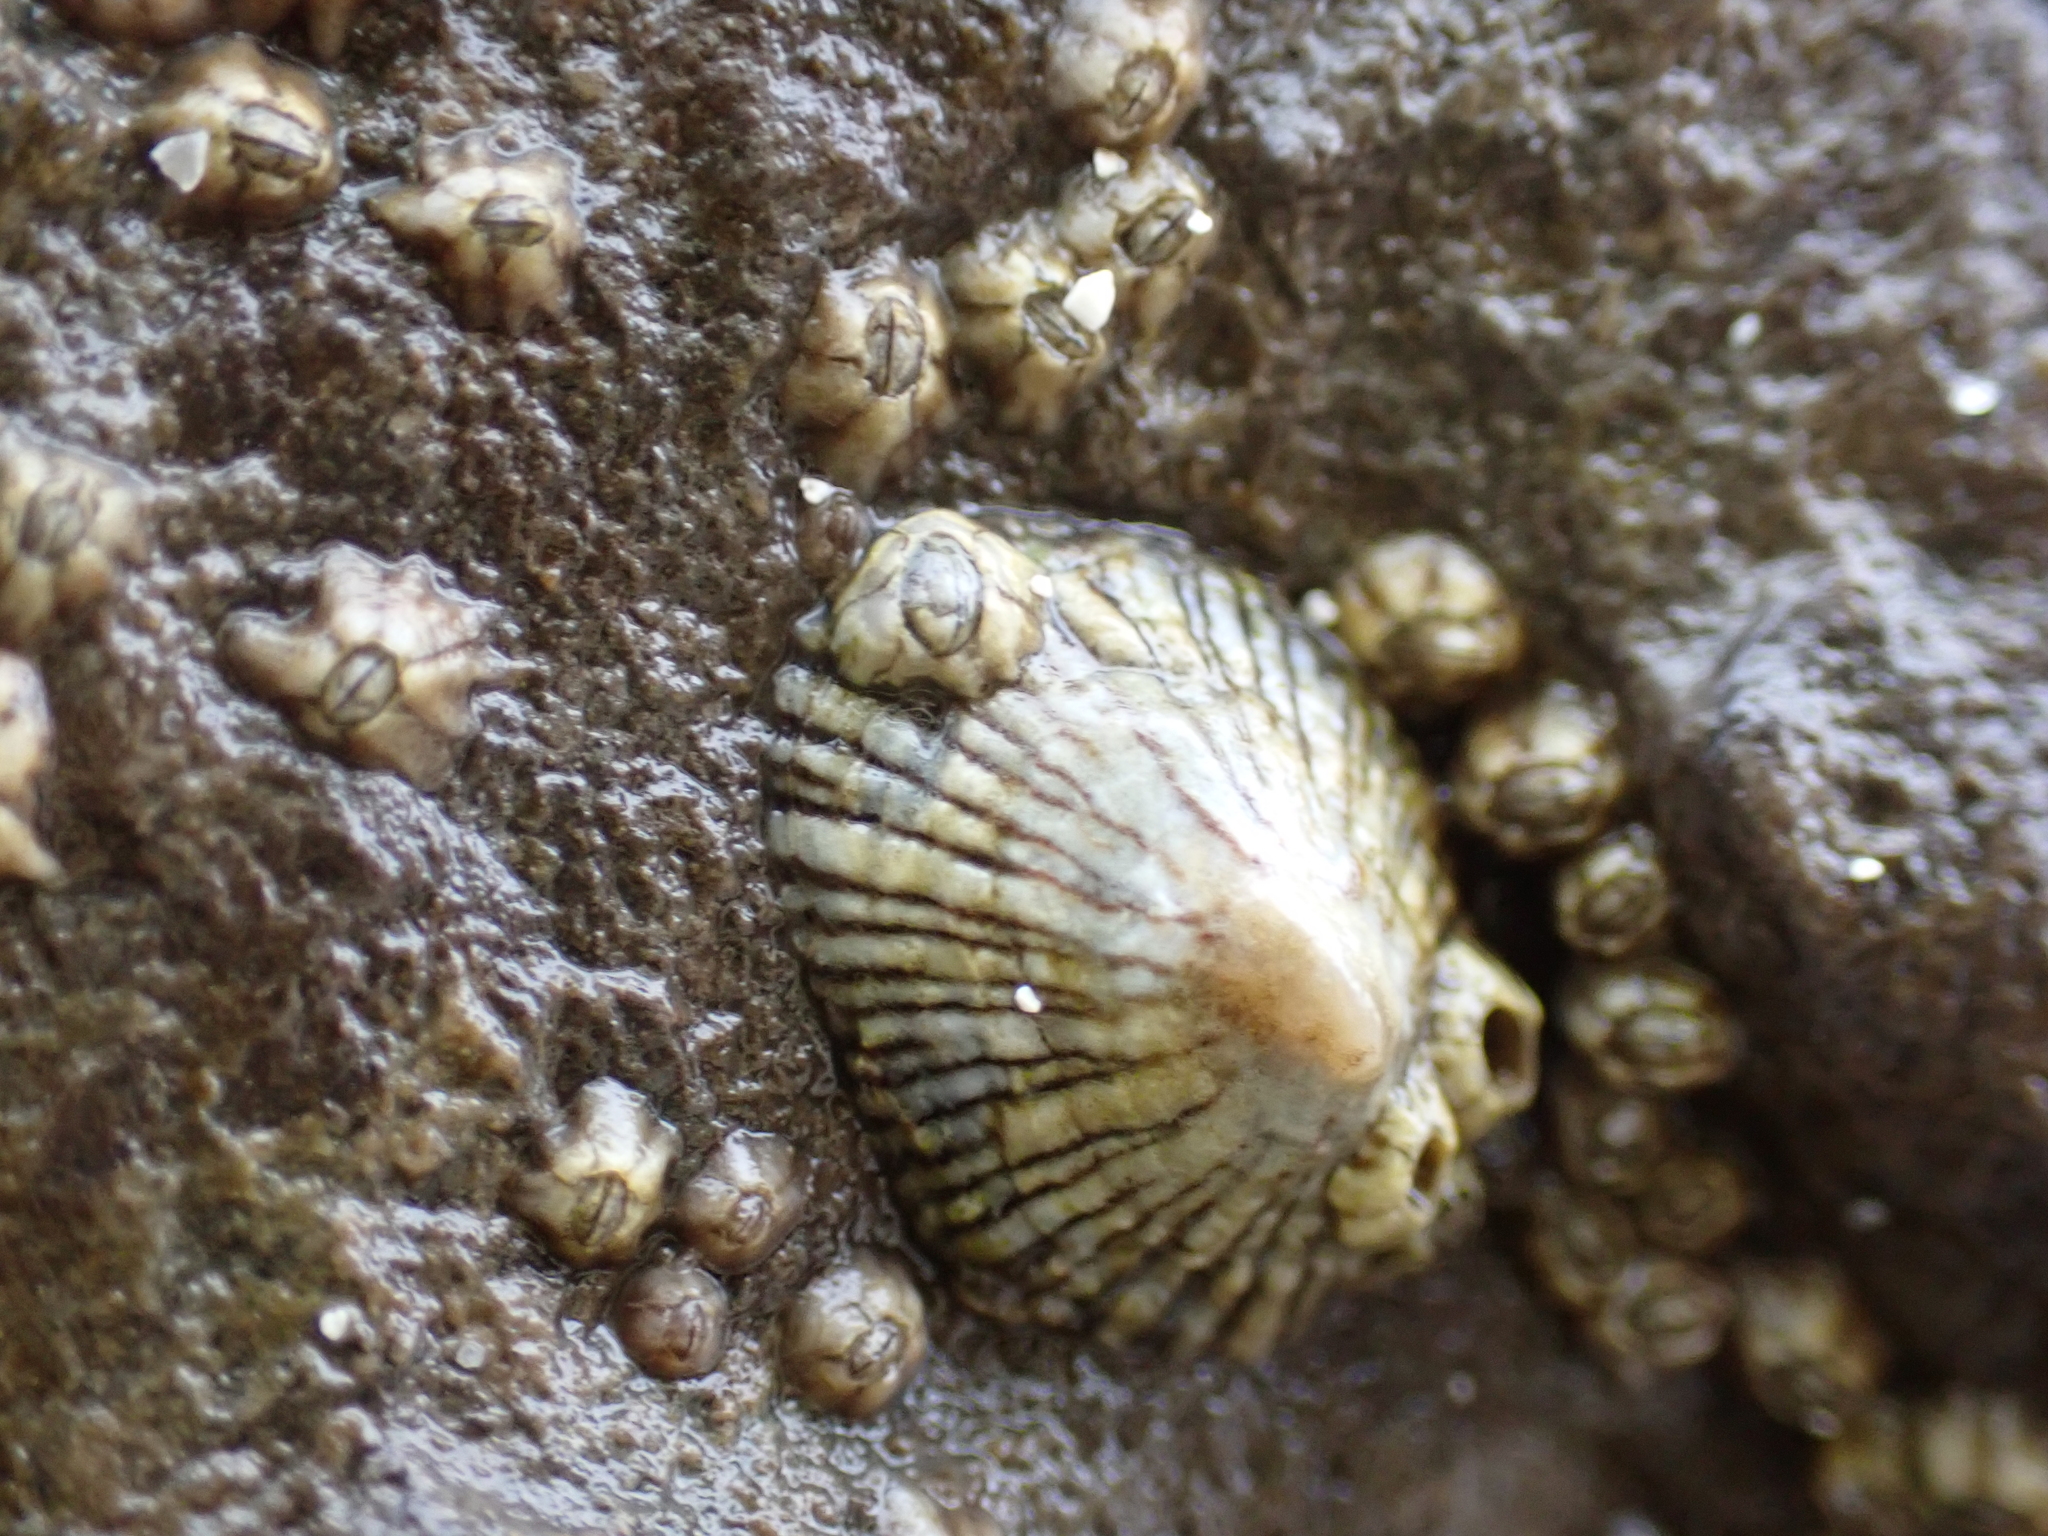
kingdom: Animalia
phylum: Mollusca
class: Gastropoda
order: Siphonariida
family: Siphonariidae
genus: Siphonaria
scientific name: Siphonaria naufragum
